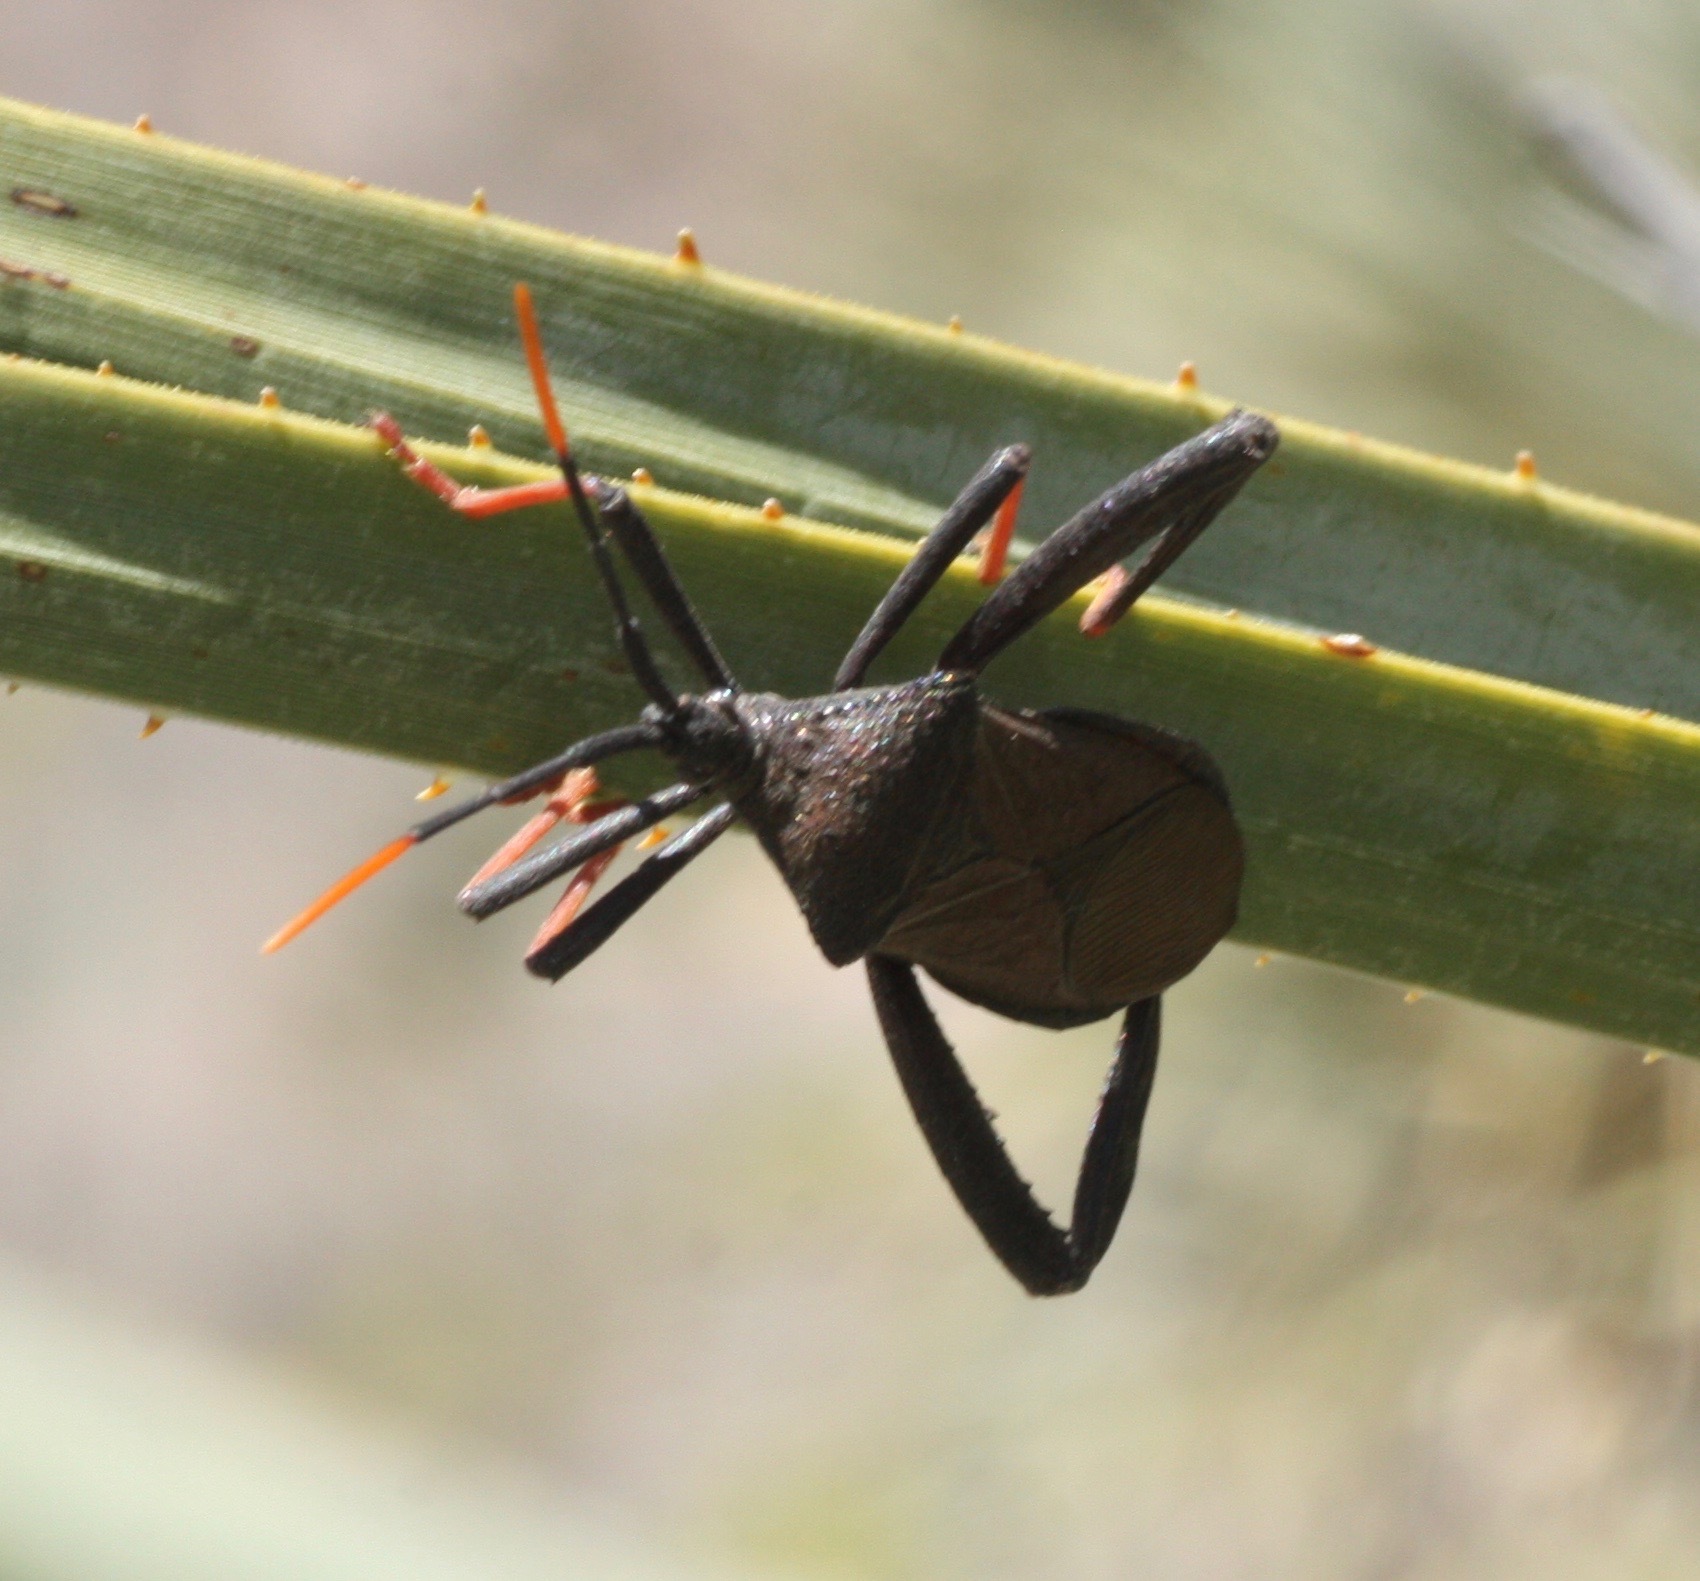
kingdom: Animalia
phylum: Arthropoda
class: Insecta
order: Hemiptera
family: Coreidae
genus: Acanthocephala
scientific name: Acanthocephala thomasi
